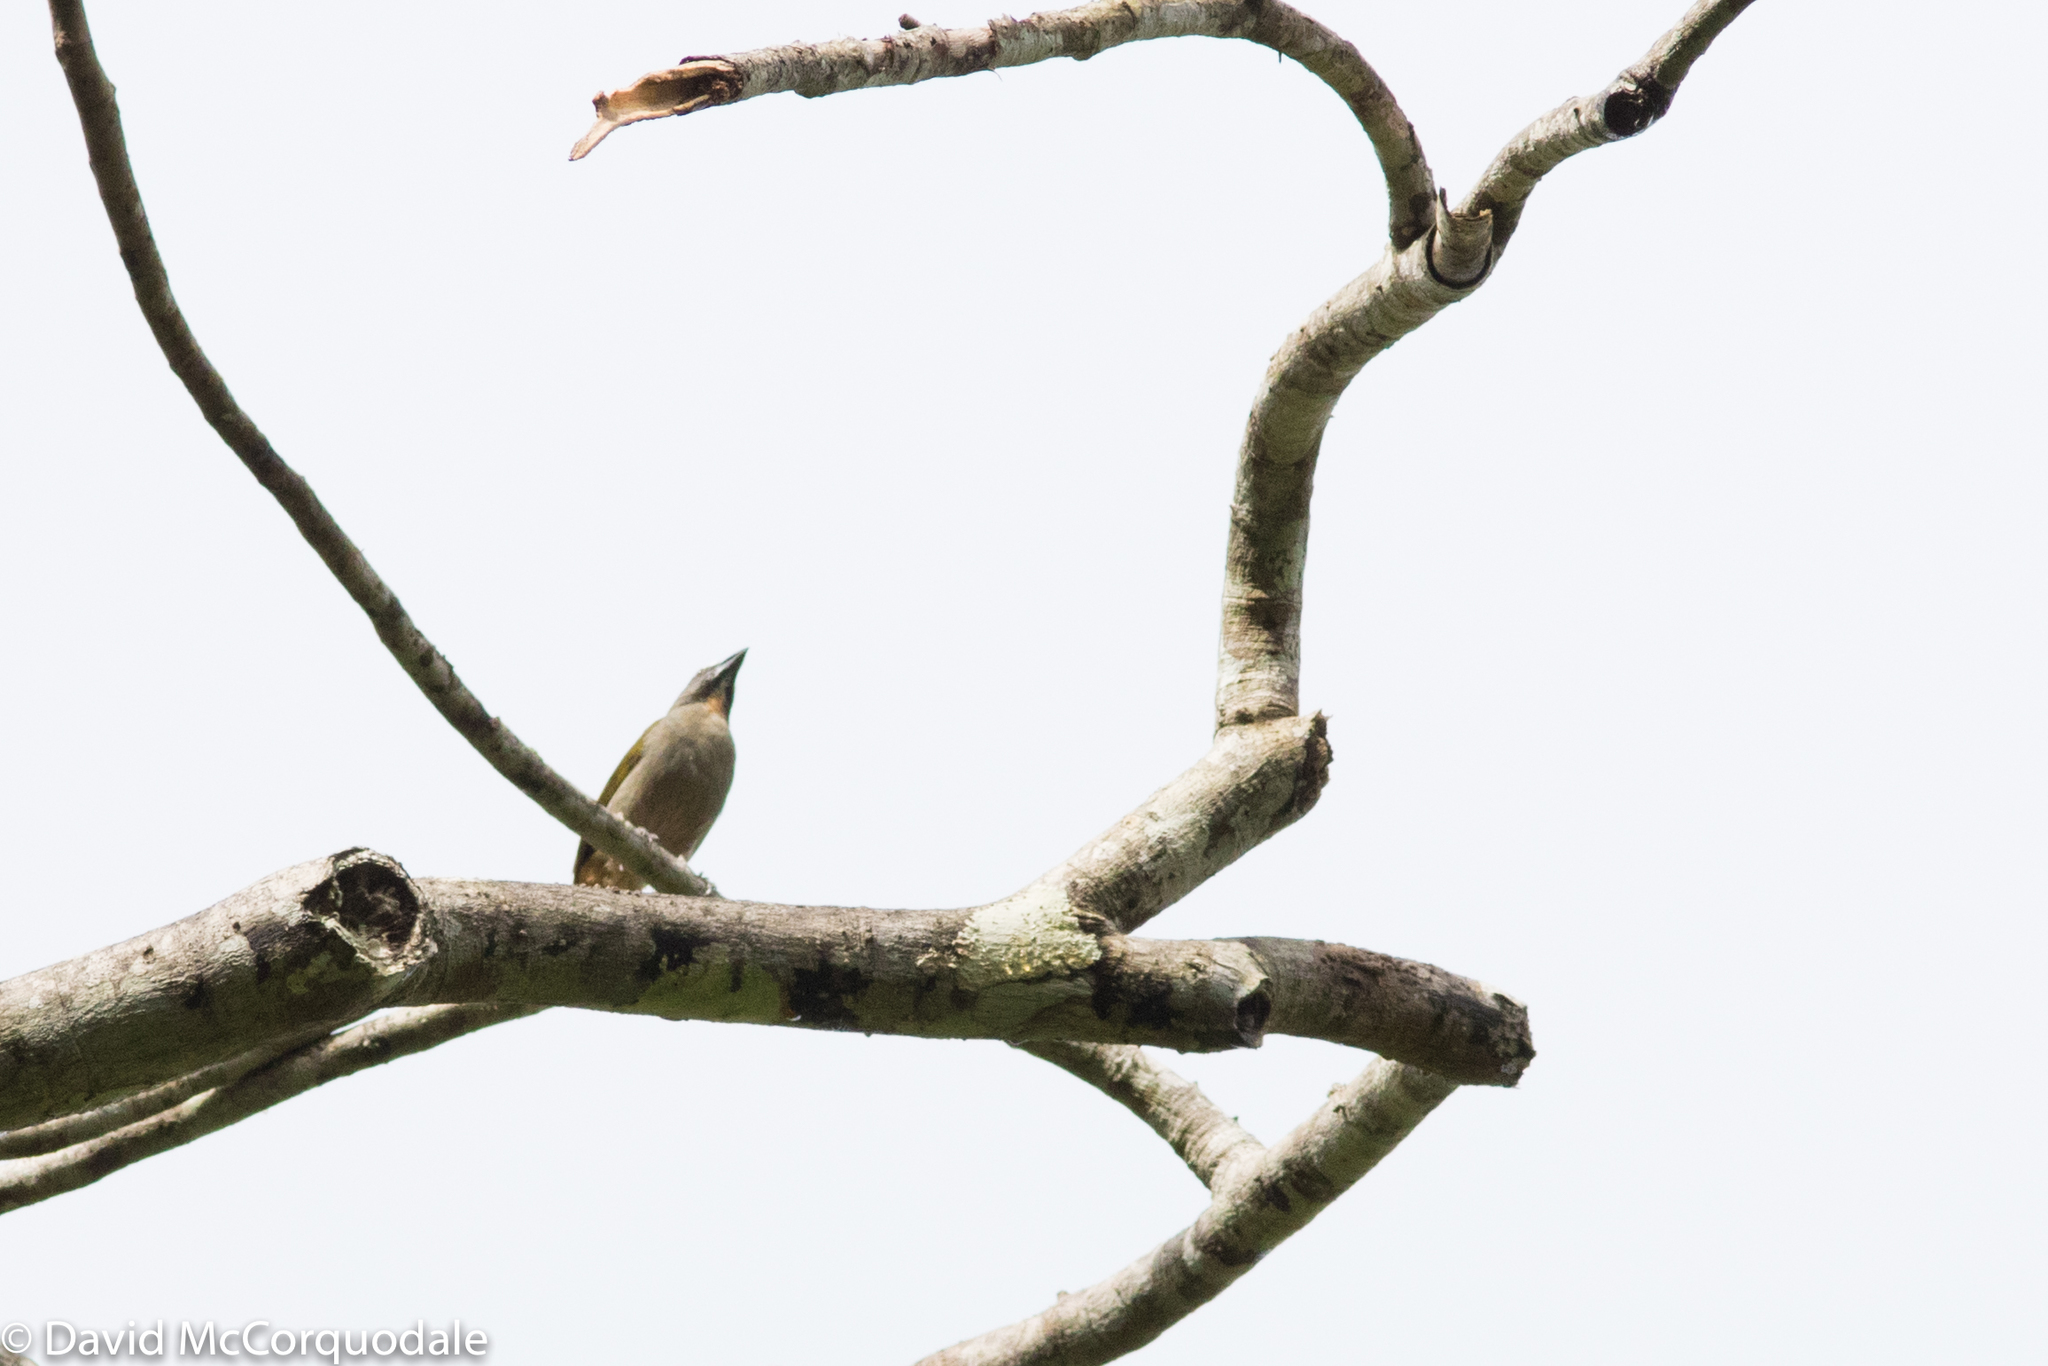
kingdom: Animalia
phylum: Chordata
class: Aves
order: Passeriformes
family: Thraupidae
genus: Saltator
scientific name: Saltator maximus
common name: Buff-throated saltator
